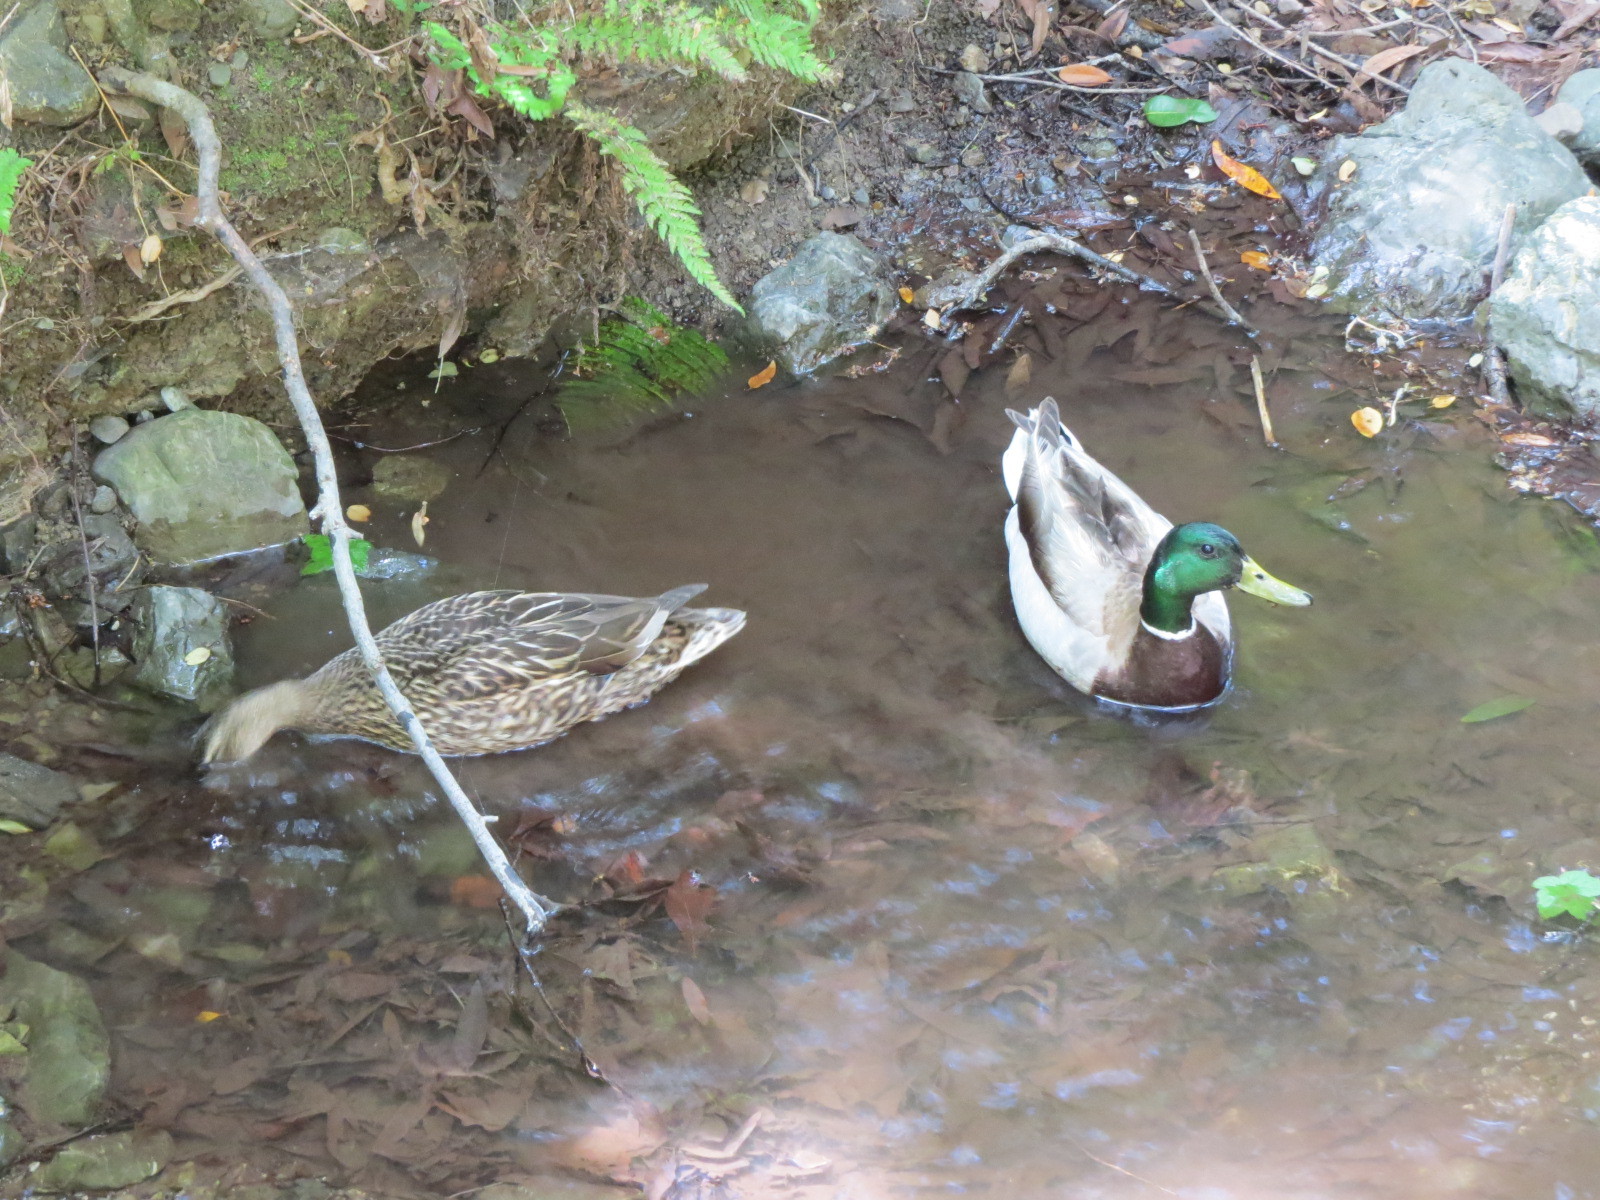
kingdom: Animalia
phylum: Chordata
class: Aves
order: Anseriformes
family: Anatidae
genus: Anas
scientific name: Anas platyrhynchos
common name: Mallard
